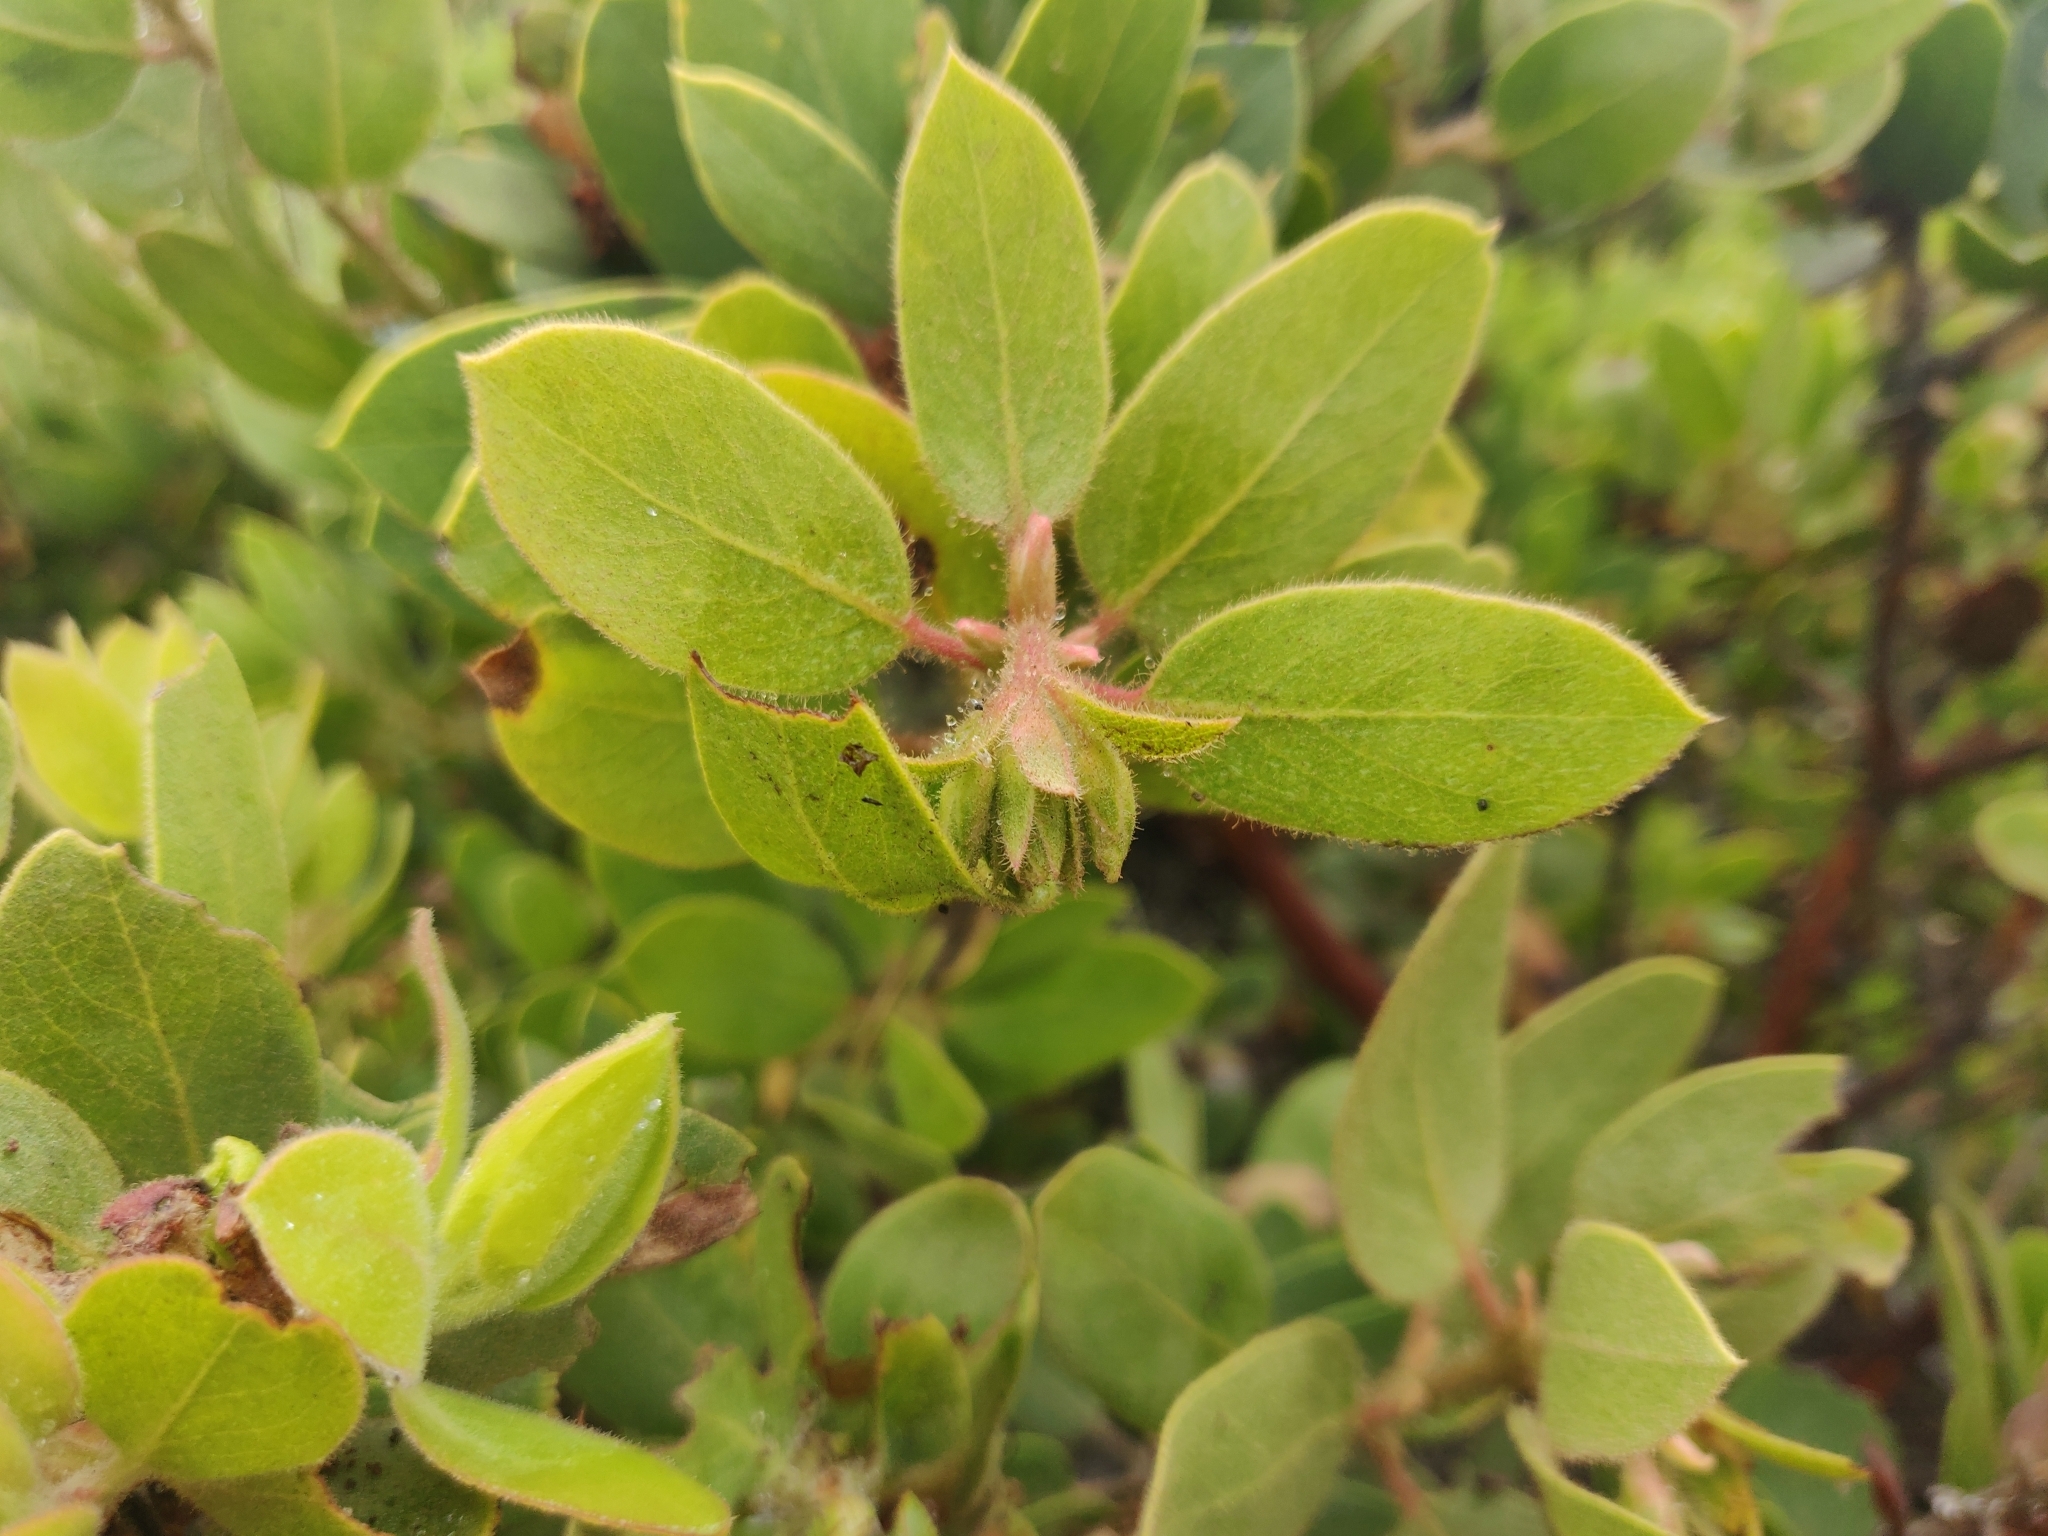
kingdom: Plantae
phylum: Tracheophyta
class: Magnoliopsida
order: Ericales
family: Ericaceae
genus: Arctostaphylos
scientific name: Arctostaphylos glandulosa
